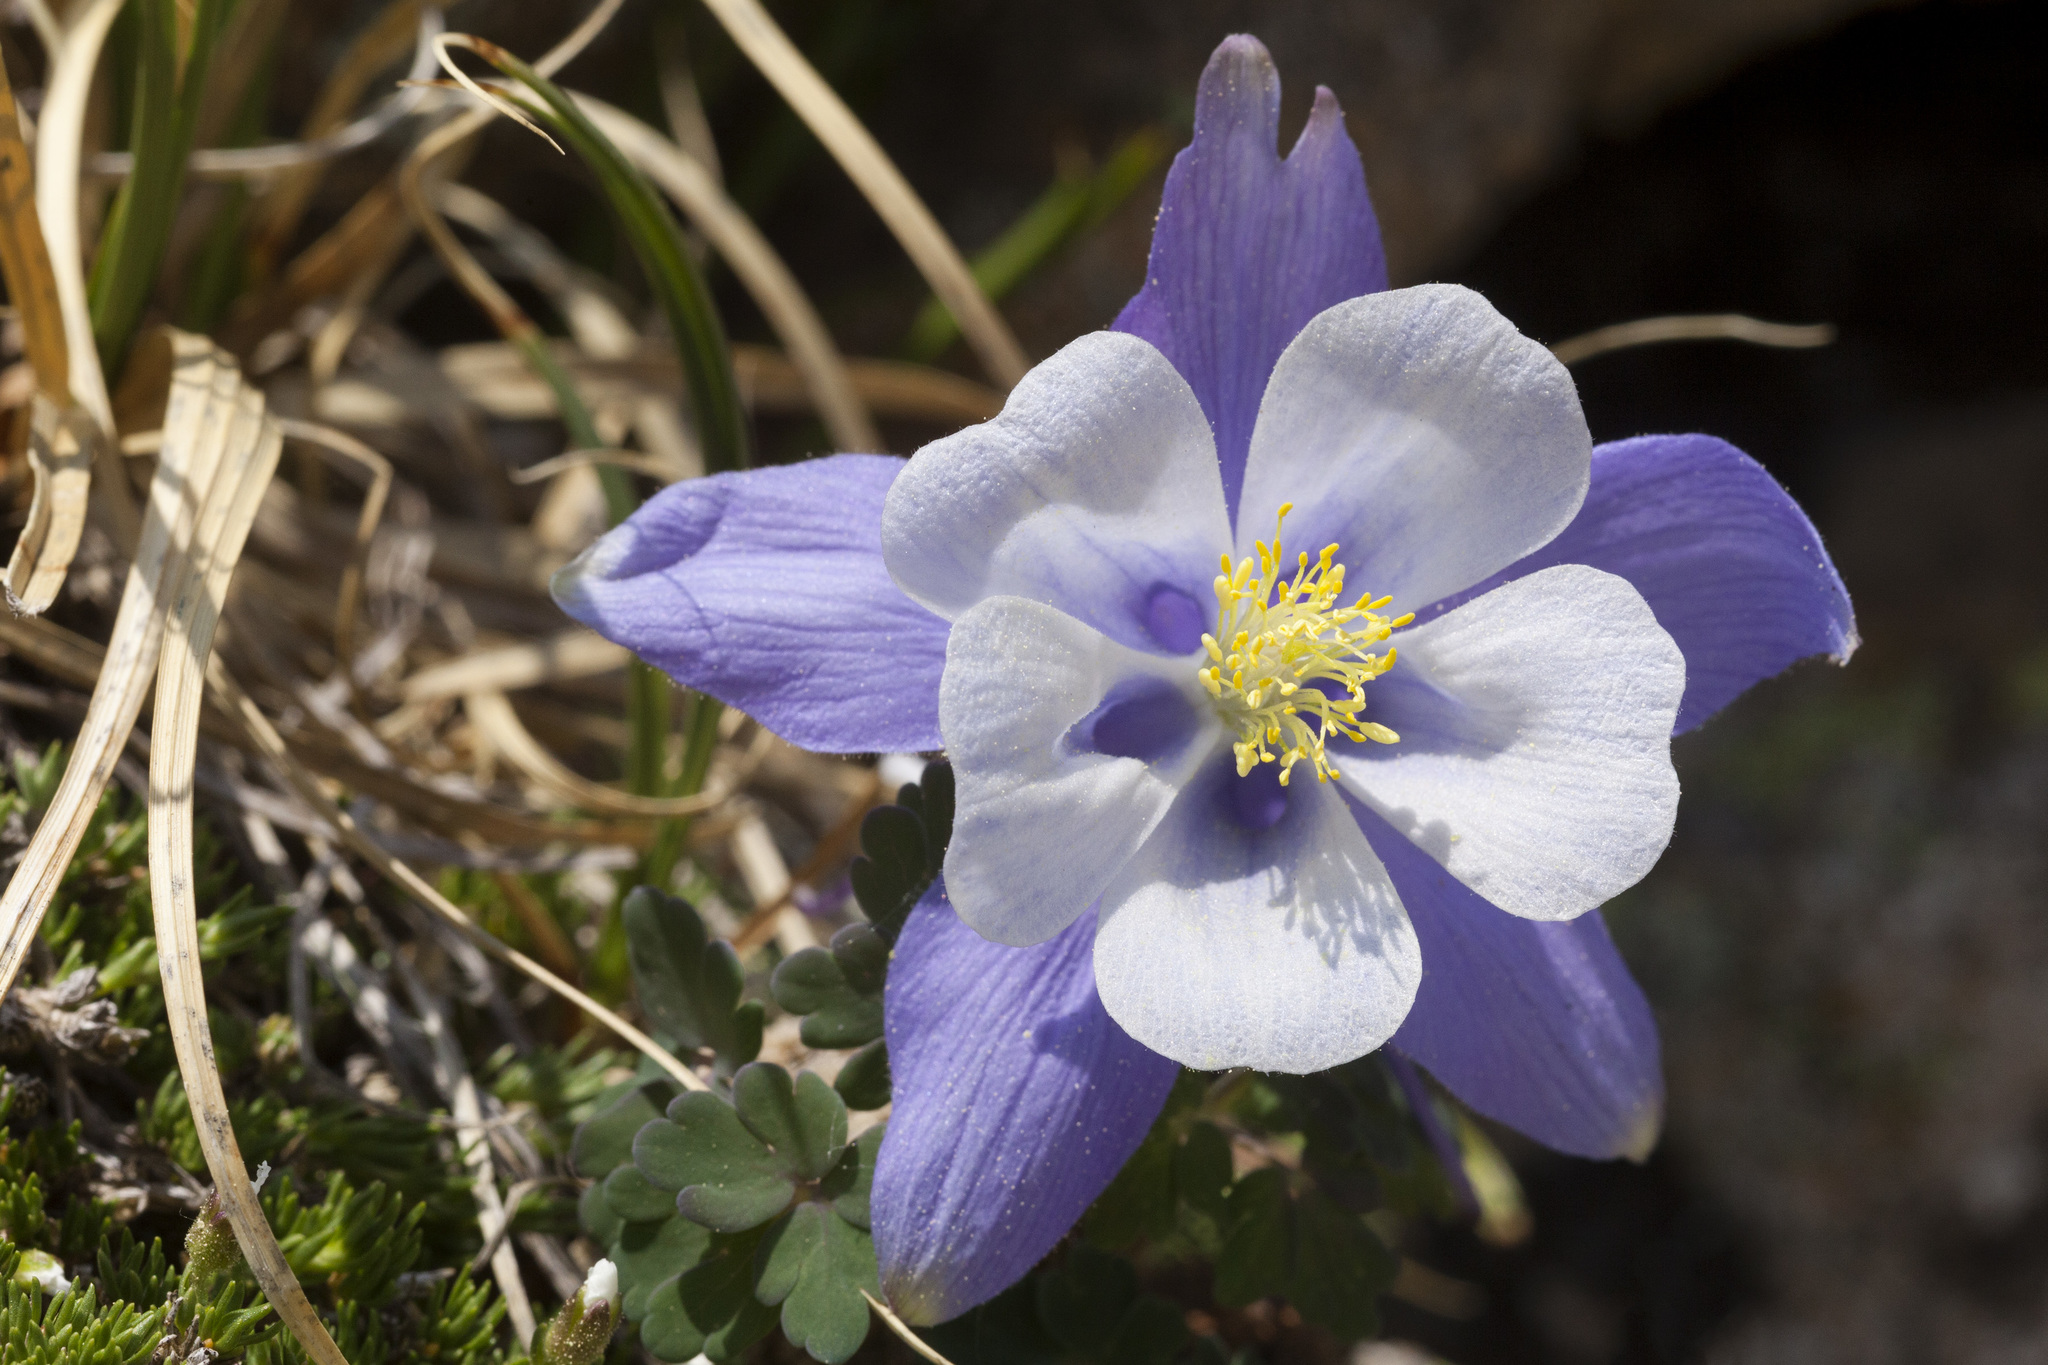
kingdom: Plantae
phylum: Tracheophyta
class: Magnoliopsida
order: Ranunculales
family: Ranunculaceae
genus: Aquilegia
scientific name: Aquilegia coerulea
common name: Rocky mountain columbine
